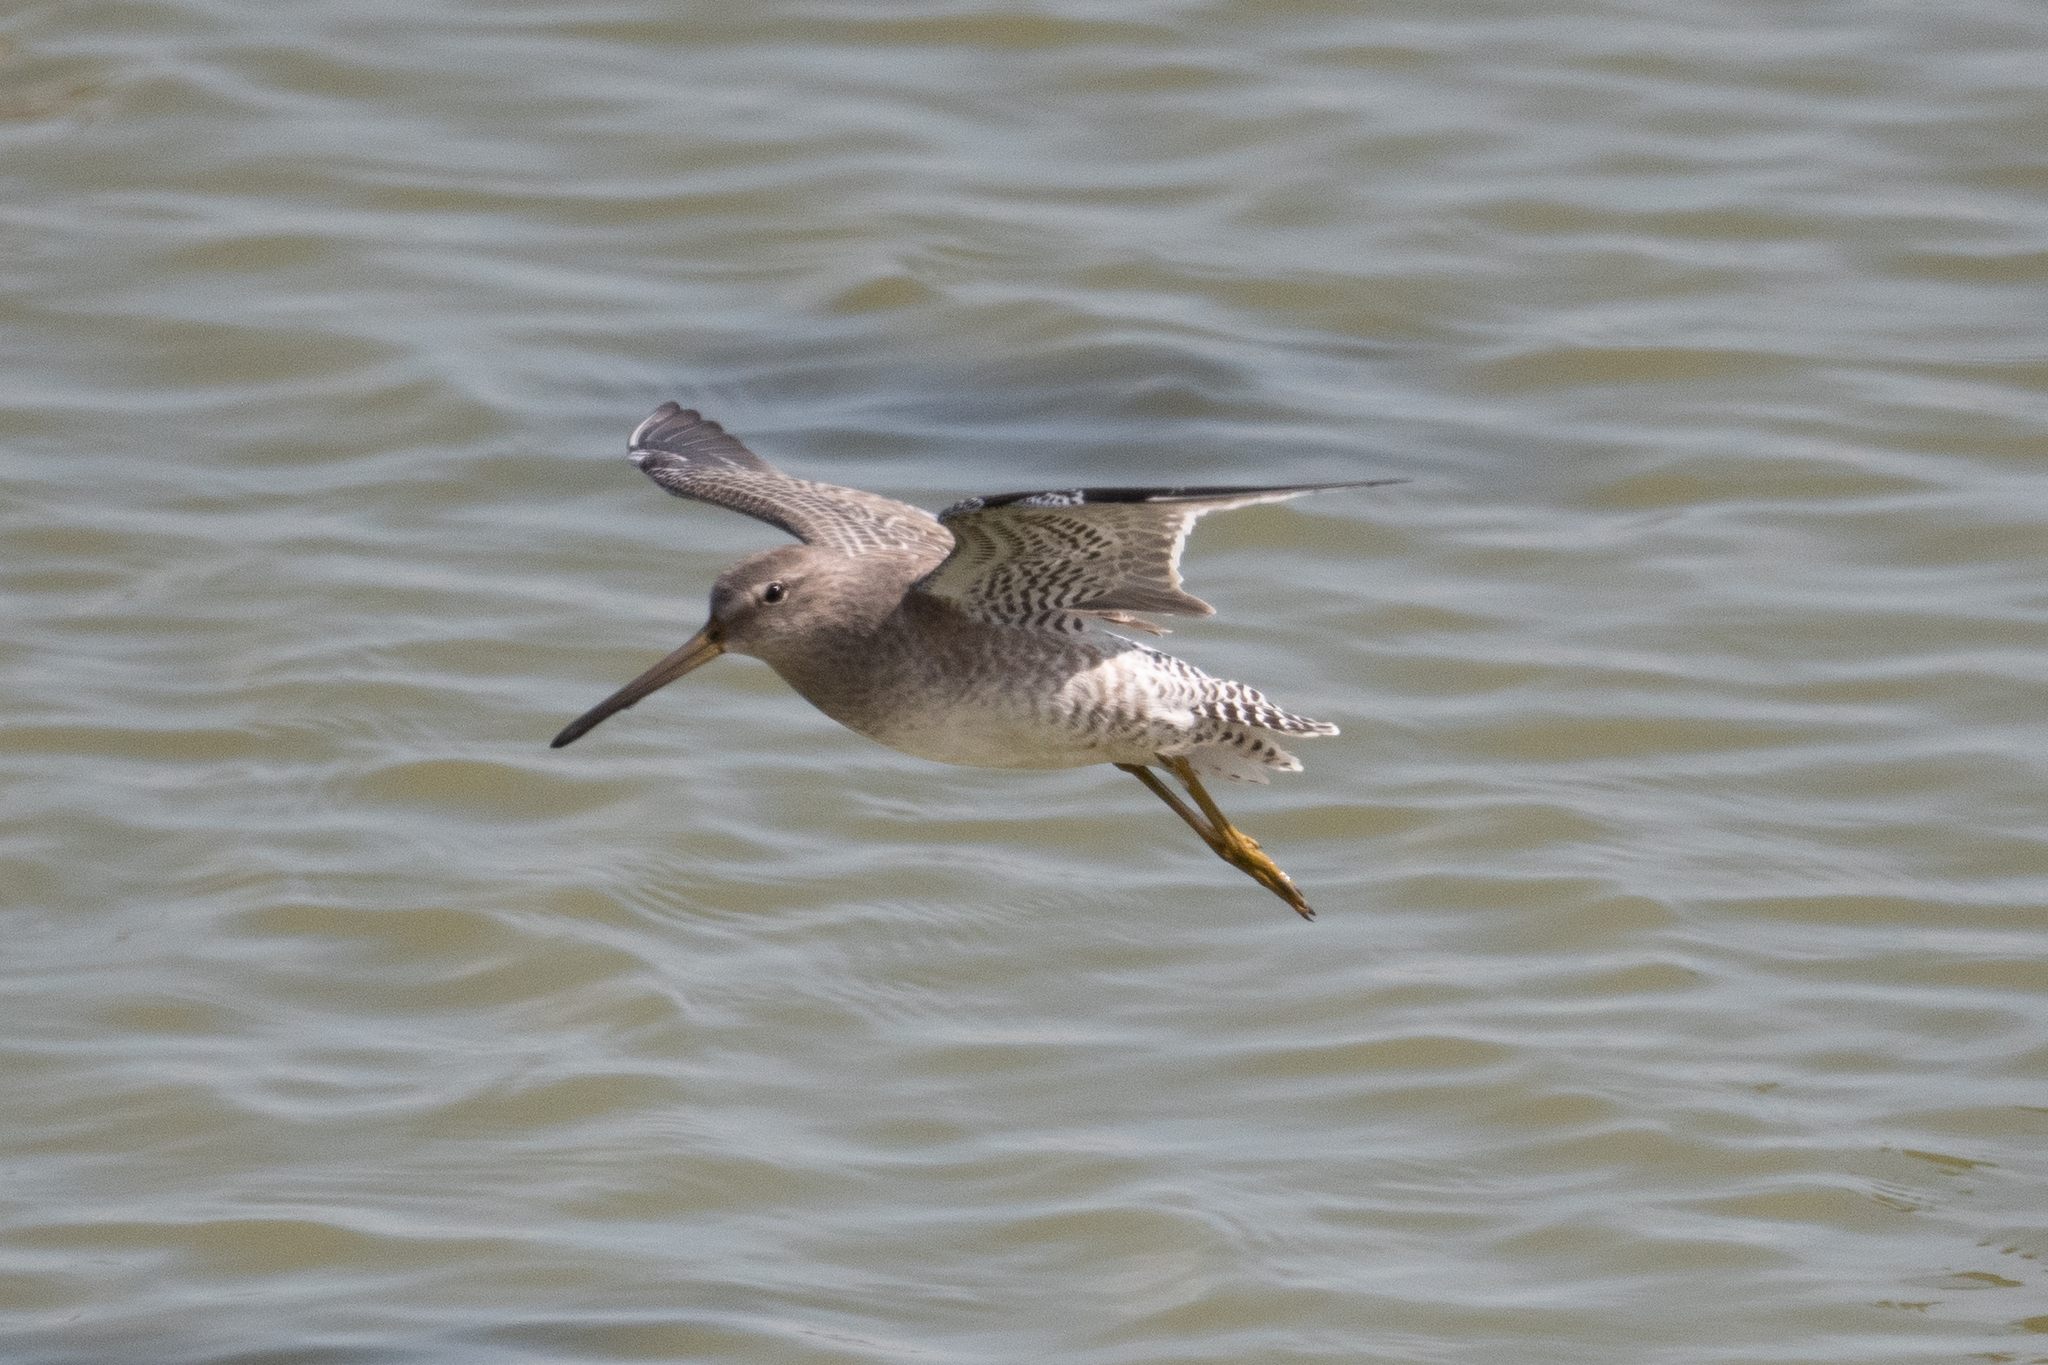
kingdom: Animalia
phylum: Chordata
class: Aves
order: Charadriiformes
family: Scolopacidae
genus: Limnodromus
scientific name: Limnodromus scolopaceus
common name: Long-billed dowitcher
